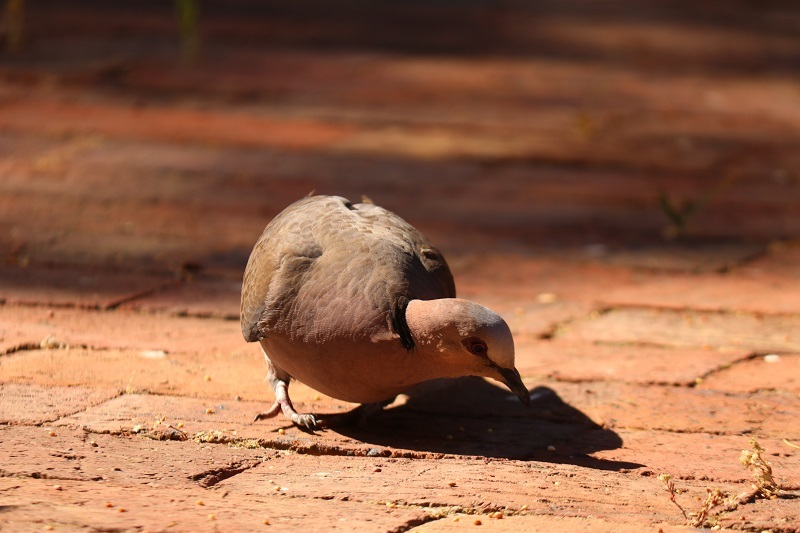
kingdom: Animalia
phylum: Chordata
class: Aves
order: Columbiformes
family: Columbidae
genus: Streptopelia
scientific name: Streptopelia semitorquata
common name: Red-eyed dove
